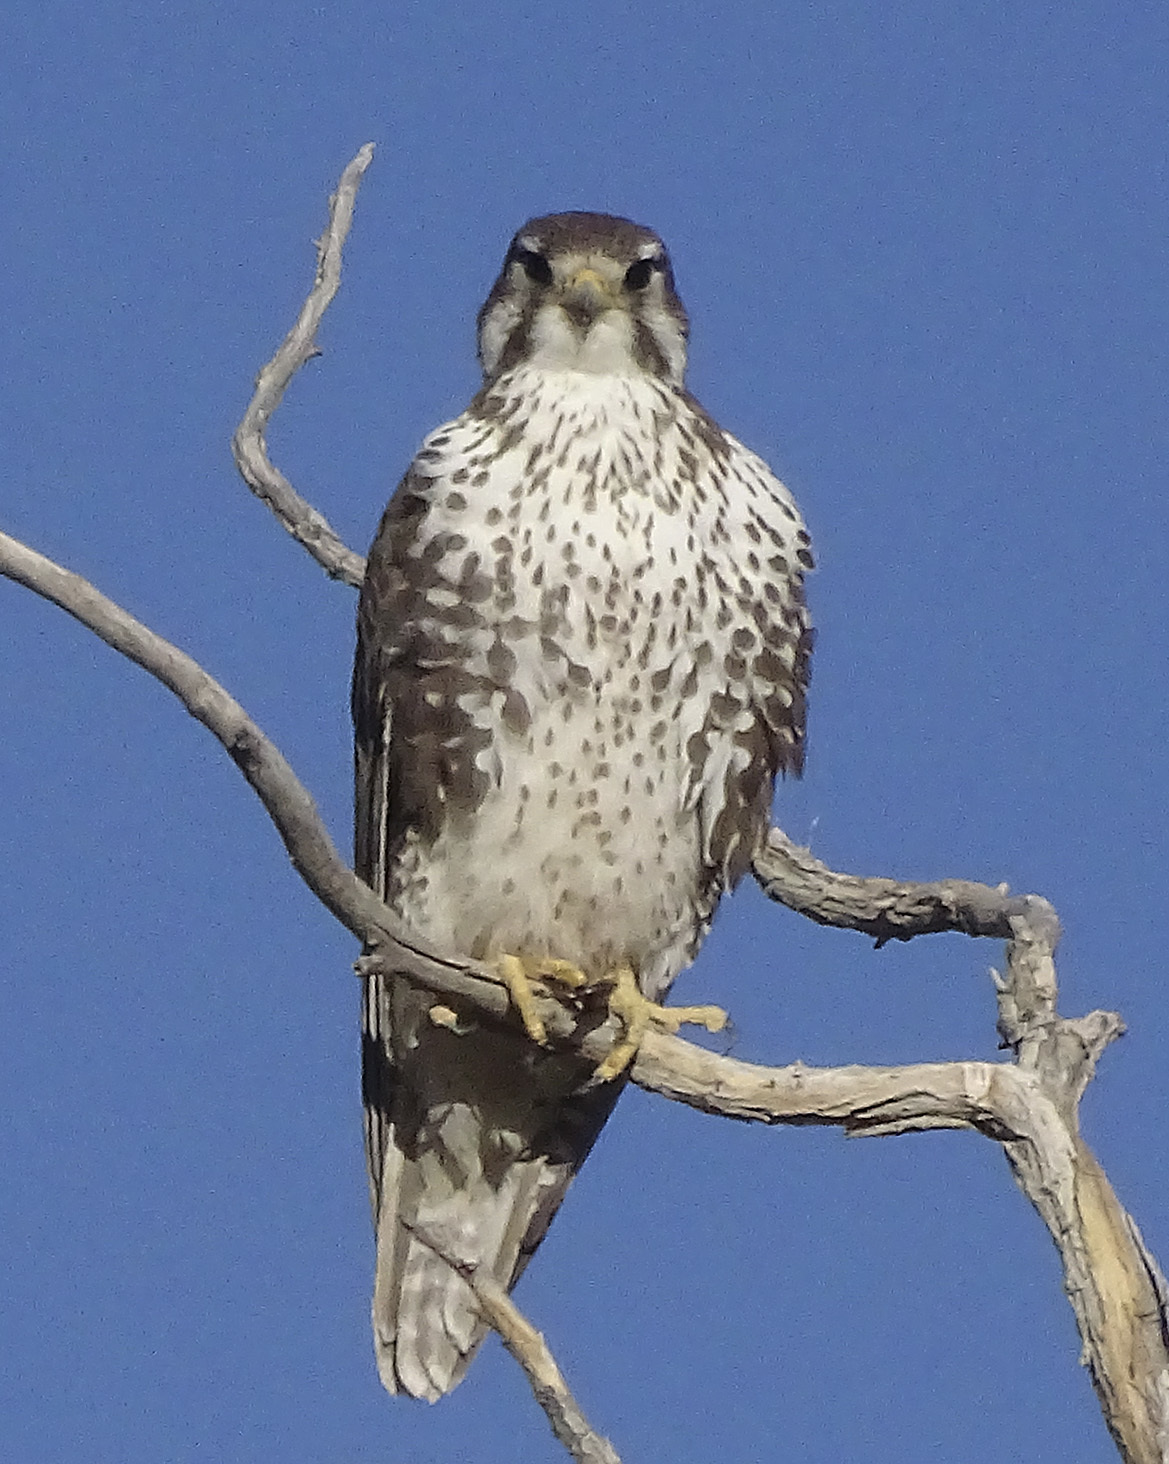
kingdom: Animalia
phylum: Chordata
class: Aves
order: Falconiformes
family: Falconidae
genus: Falco
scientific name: Falco mexicanus
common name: Prairie falcon
